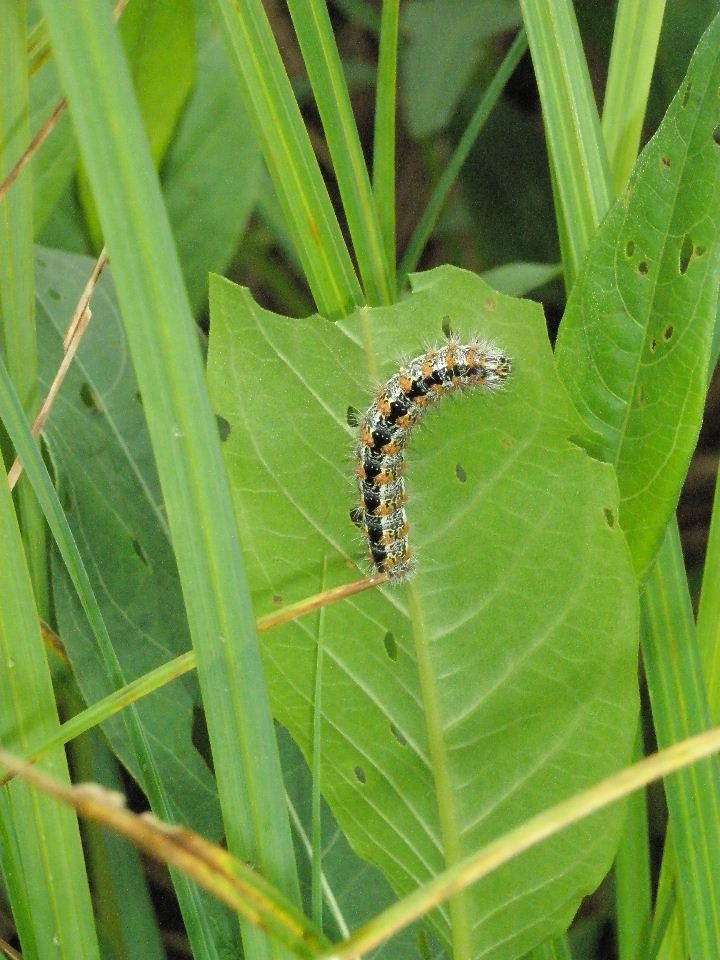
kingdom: Animalia
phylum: Arthropoda
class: Insecta
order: Lepidoptera
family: Noctuidae
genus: Acronicta
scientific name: Acronicta insularis
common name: Henry's marsh moth
